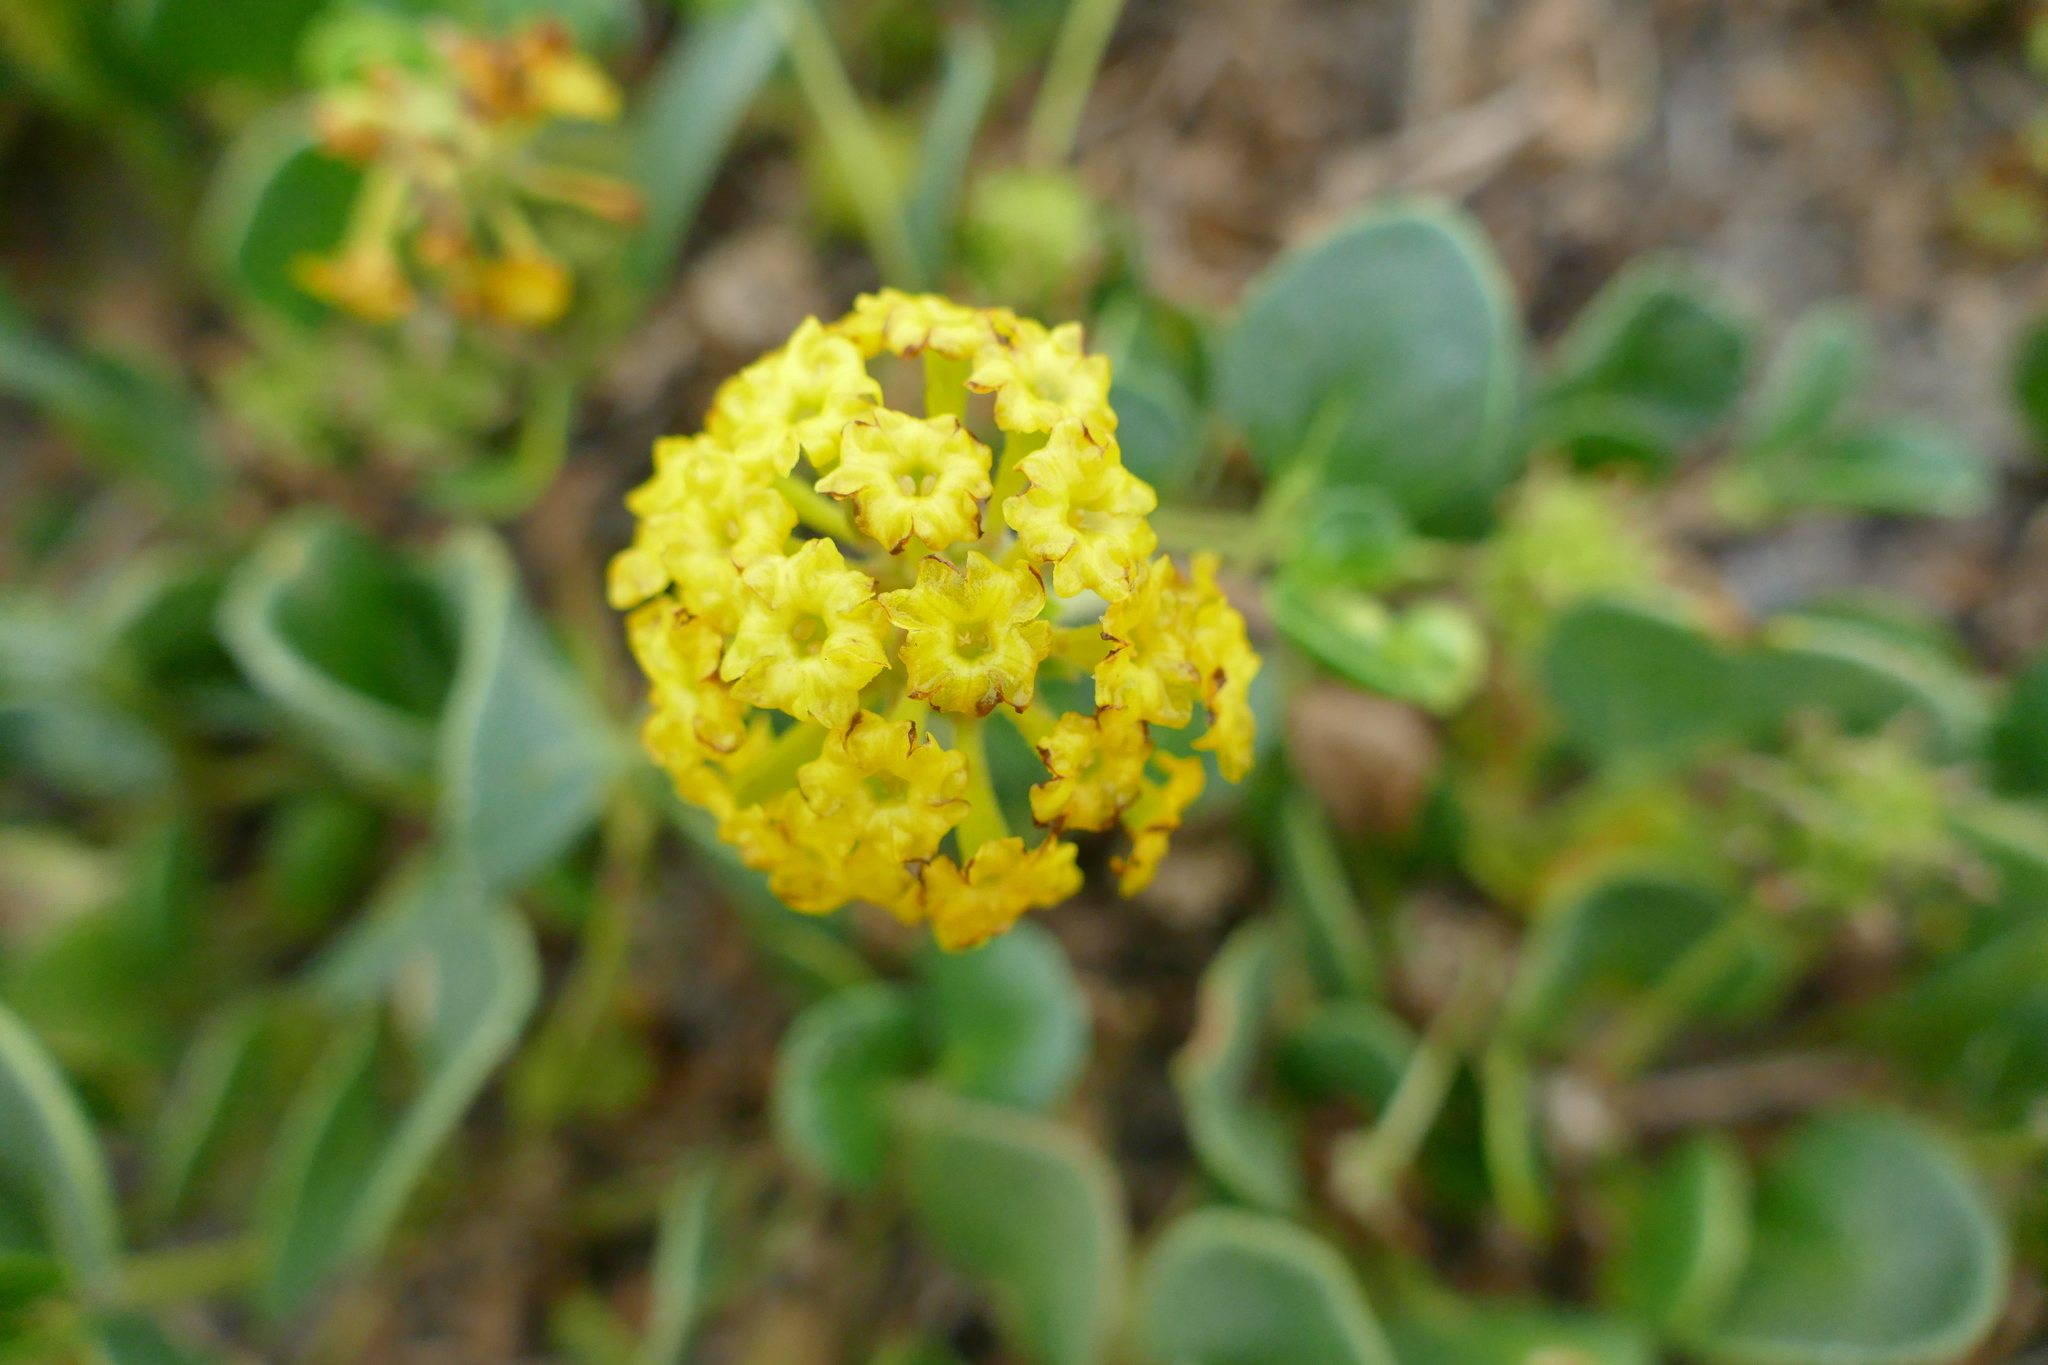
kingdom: Plantae
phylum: Tracheophyta
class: Magnoliopsida
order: Caryophyllales
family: Nyctaginaceae
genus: Abronia
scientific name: Abronia latifolia
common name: Yellow sand-verbena
